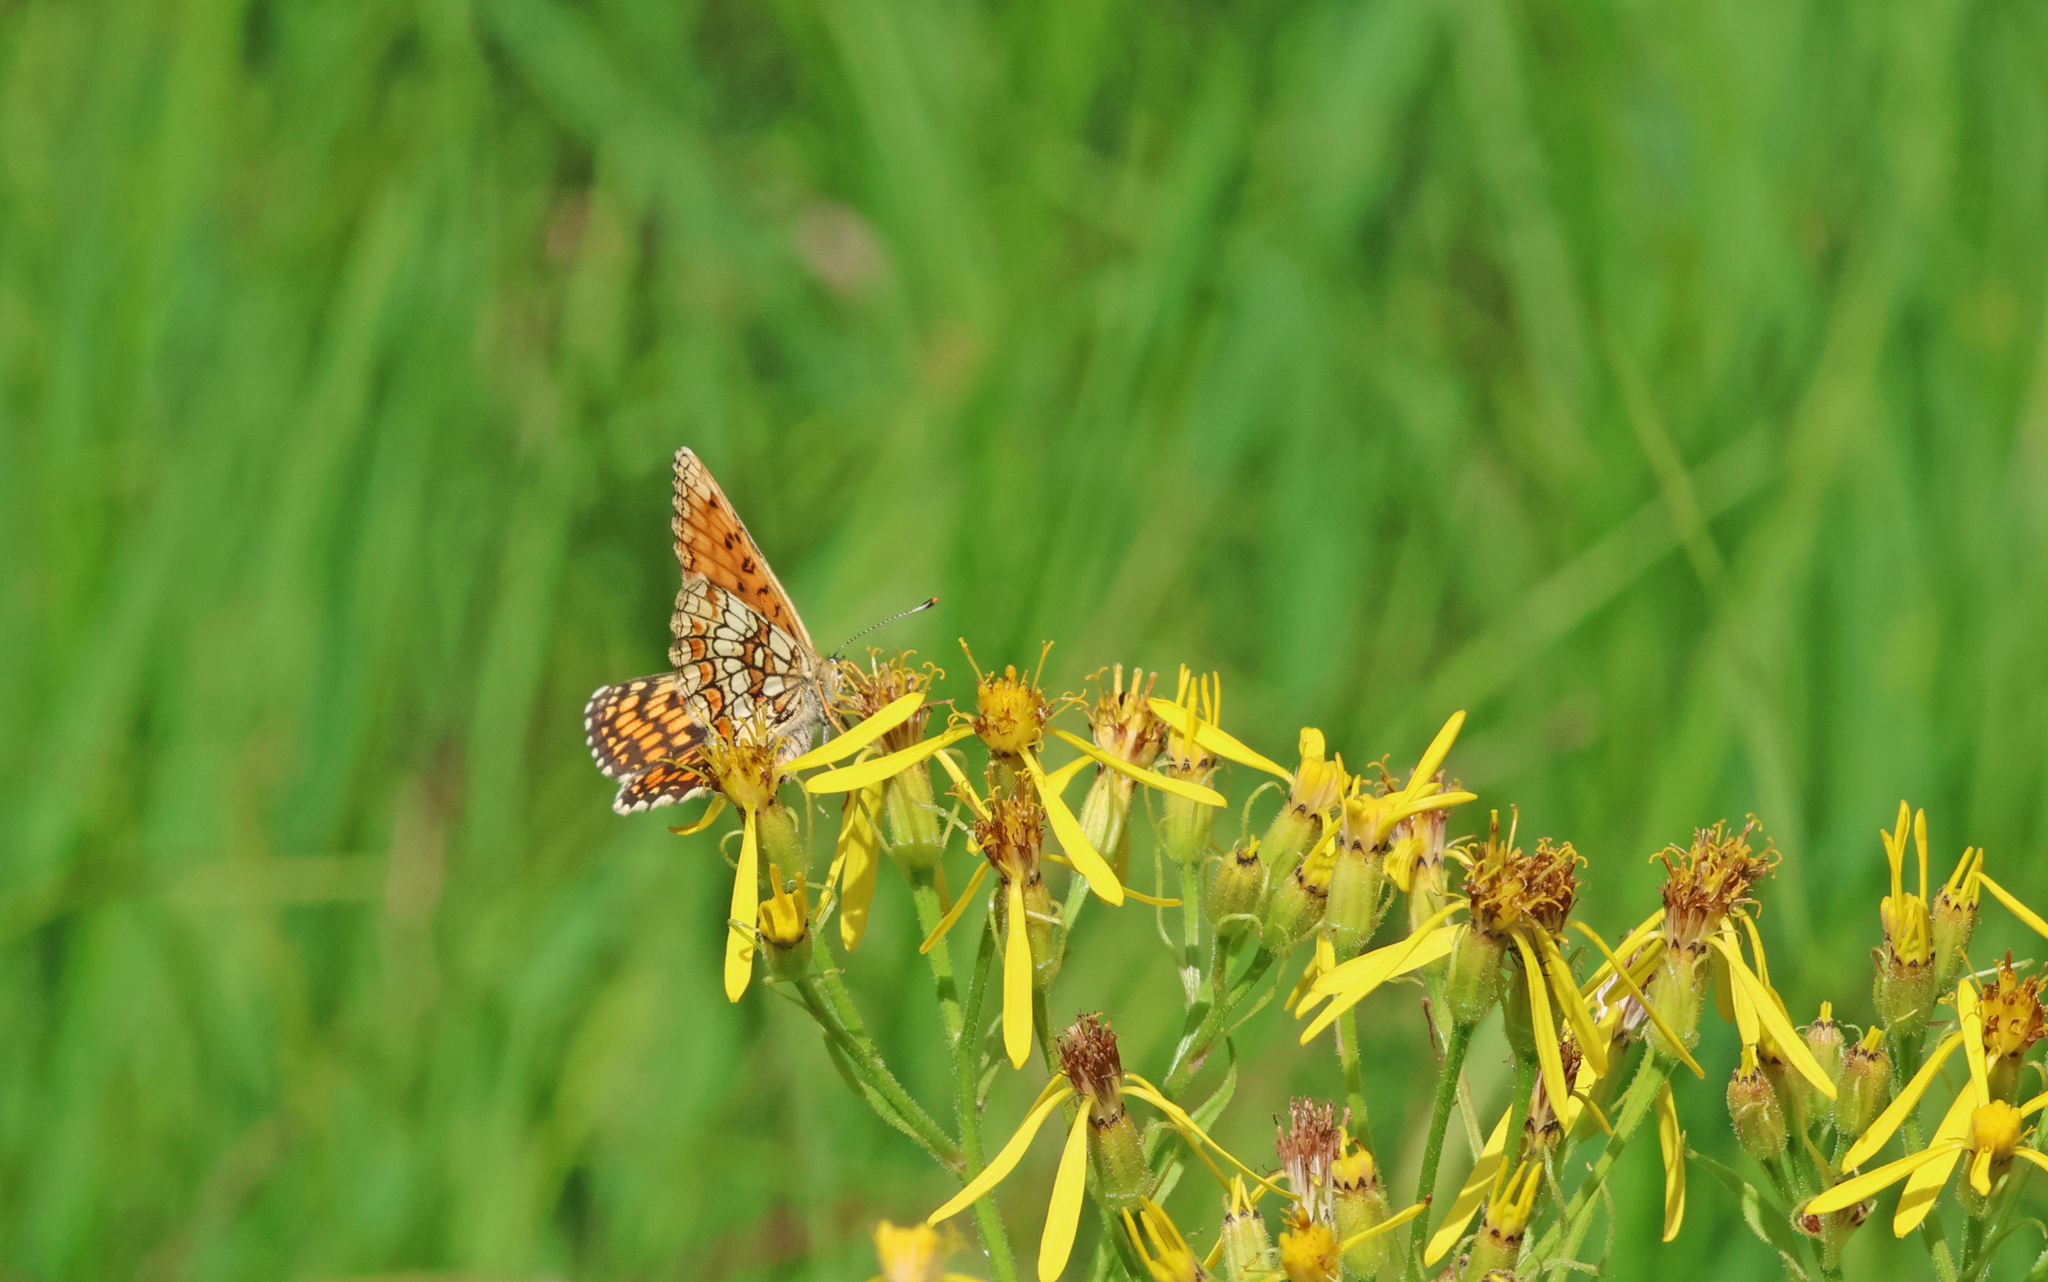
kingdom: Animalia
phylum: Arthropoda
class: Insecta
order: Lepidoptera
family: Nymphalidae
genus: Melitaea
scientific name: Melitaea athalia
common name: Heath fritillary
